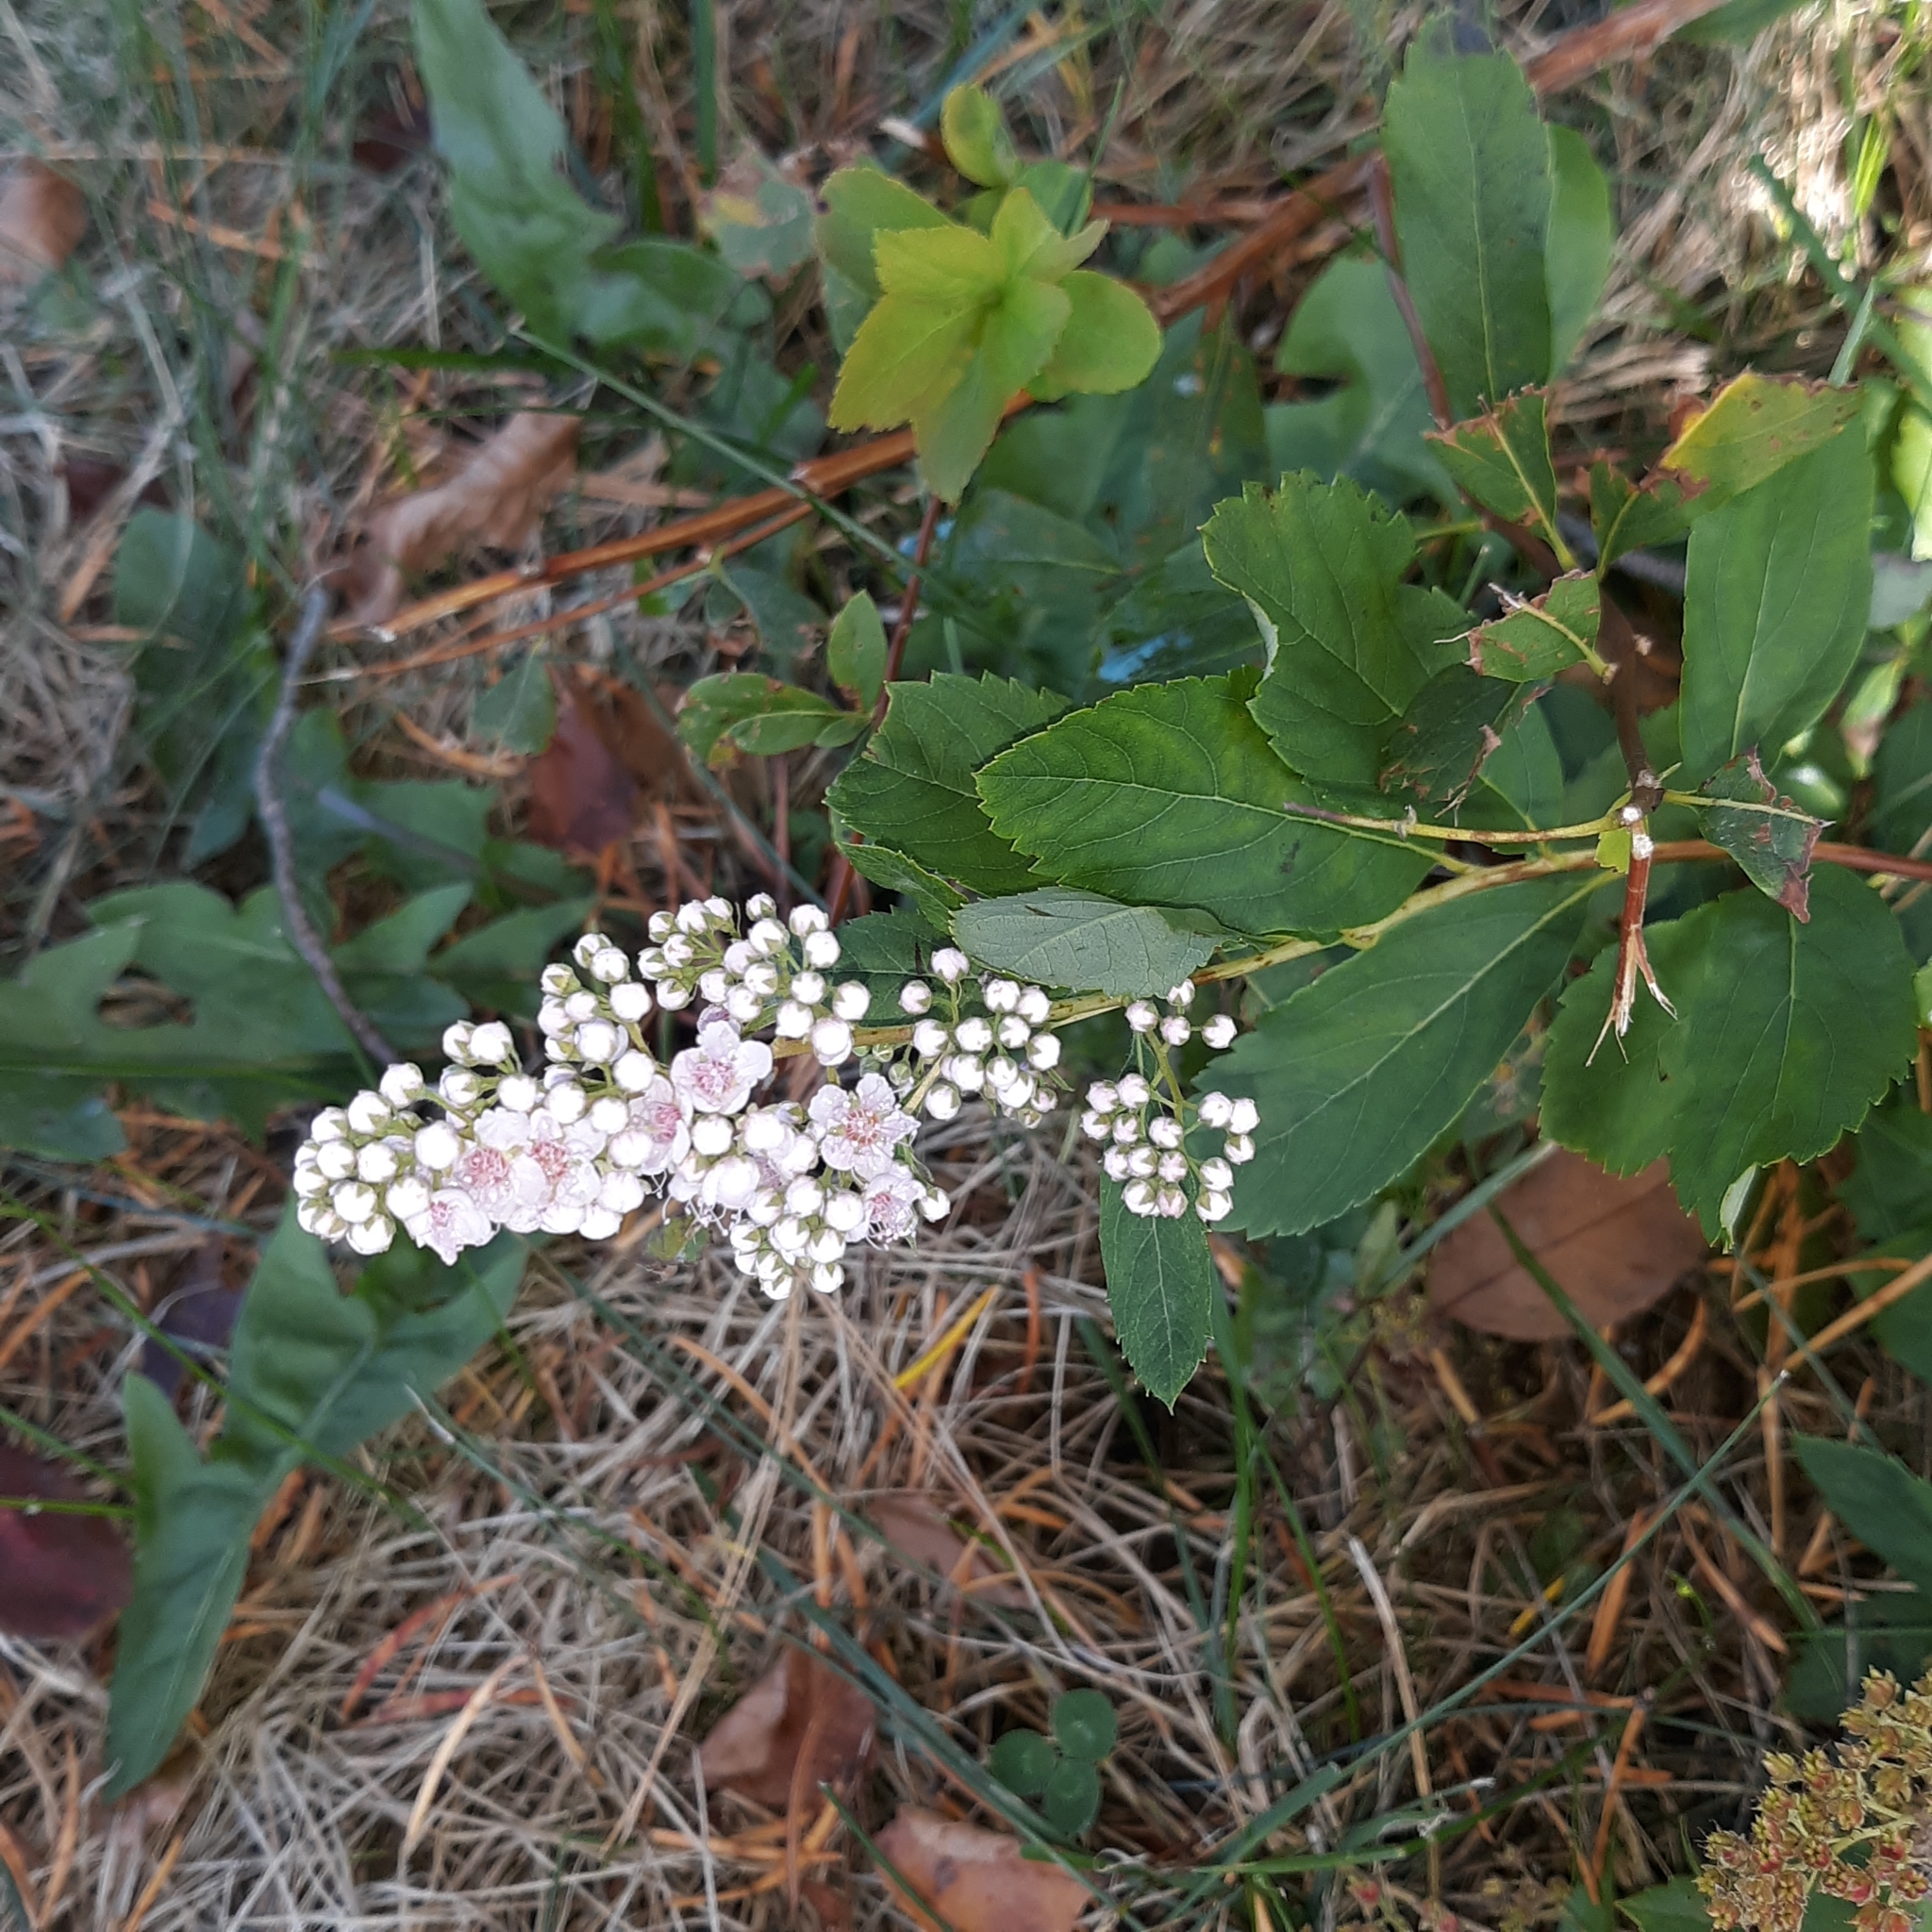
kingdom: Plantae
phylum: Tracheophyta
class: Magnoliopsida
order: Rosales
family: Rosaceae
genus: Spiraea
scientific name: Spiraea alba
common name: Pale bridewort
